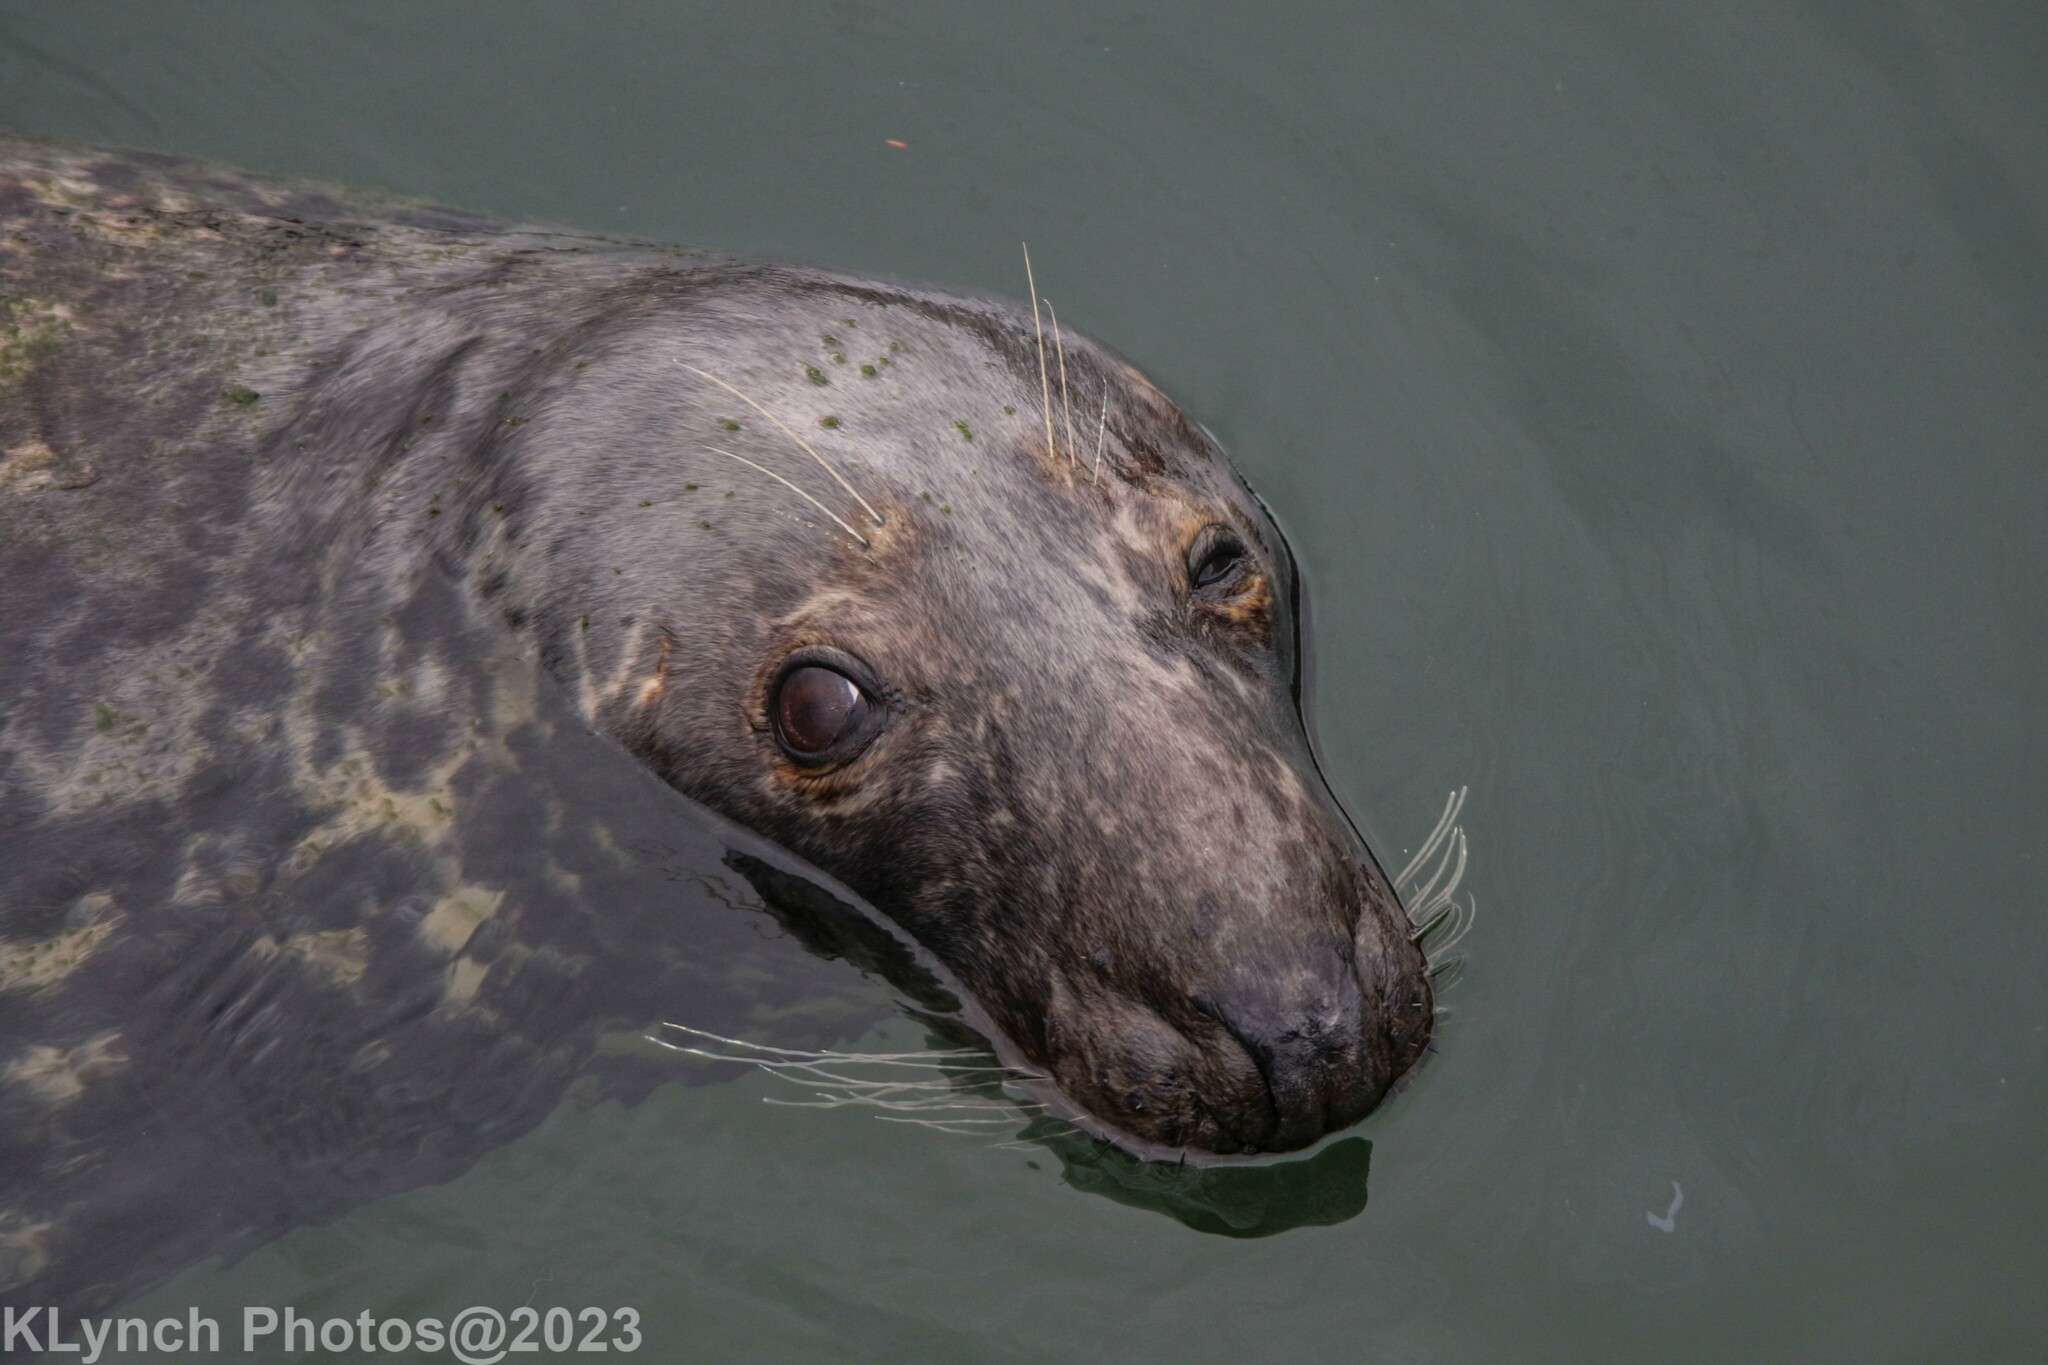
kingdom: Animalia
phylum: Chordata
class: Mammalia
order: Carnivora
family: Phocidae
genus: Halichoerus
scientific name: Halichoerus grypus
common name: Grey seal
